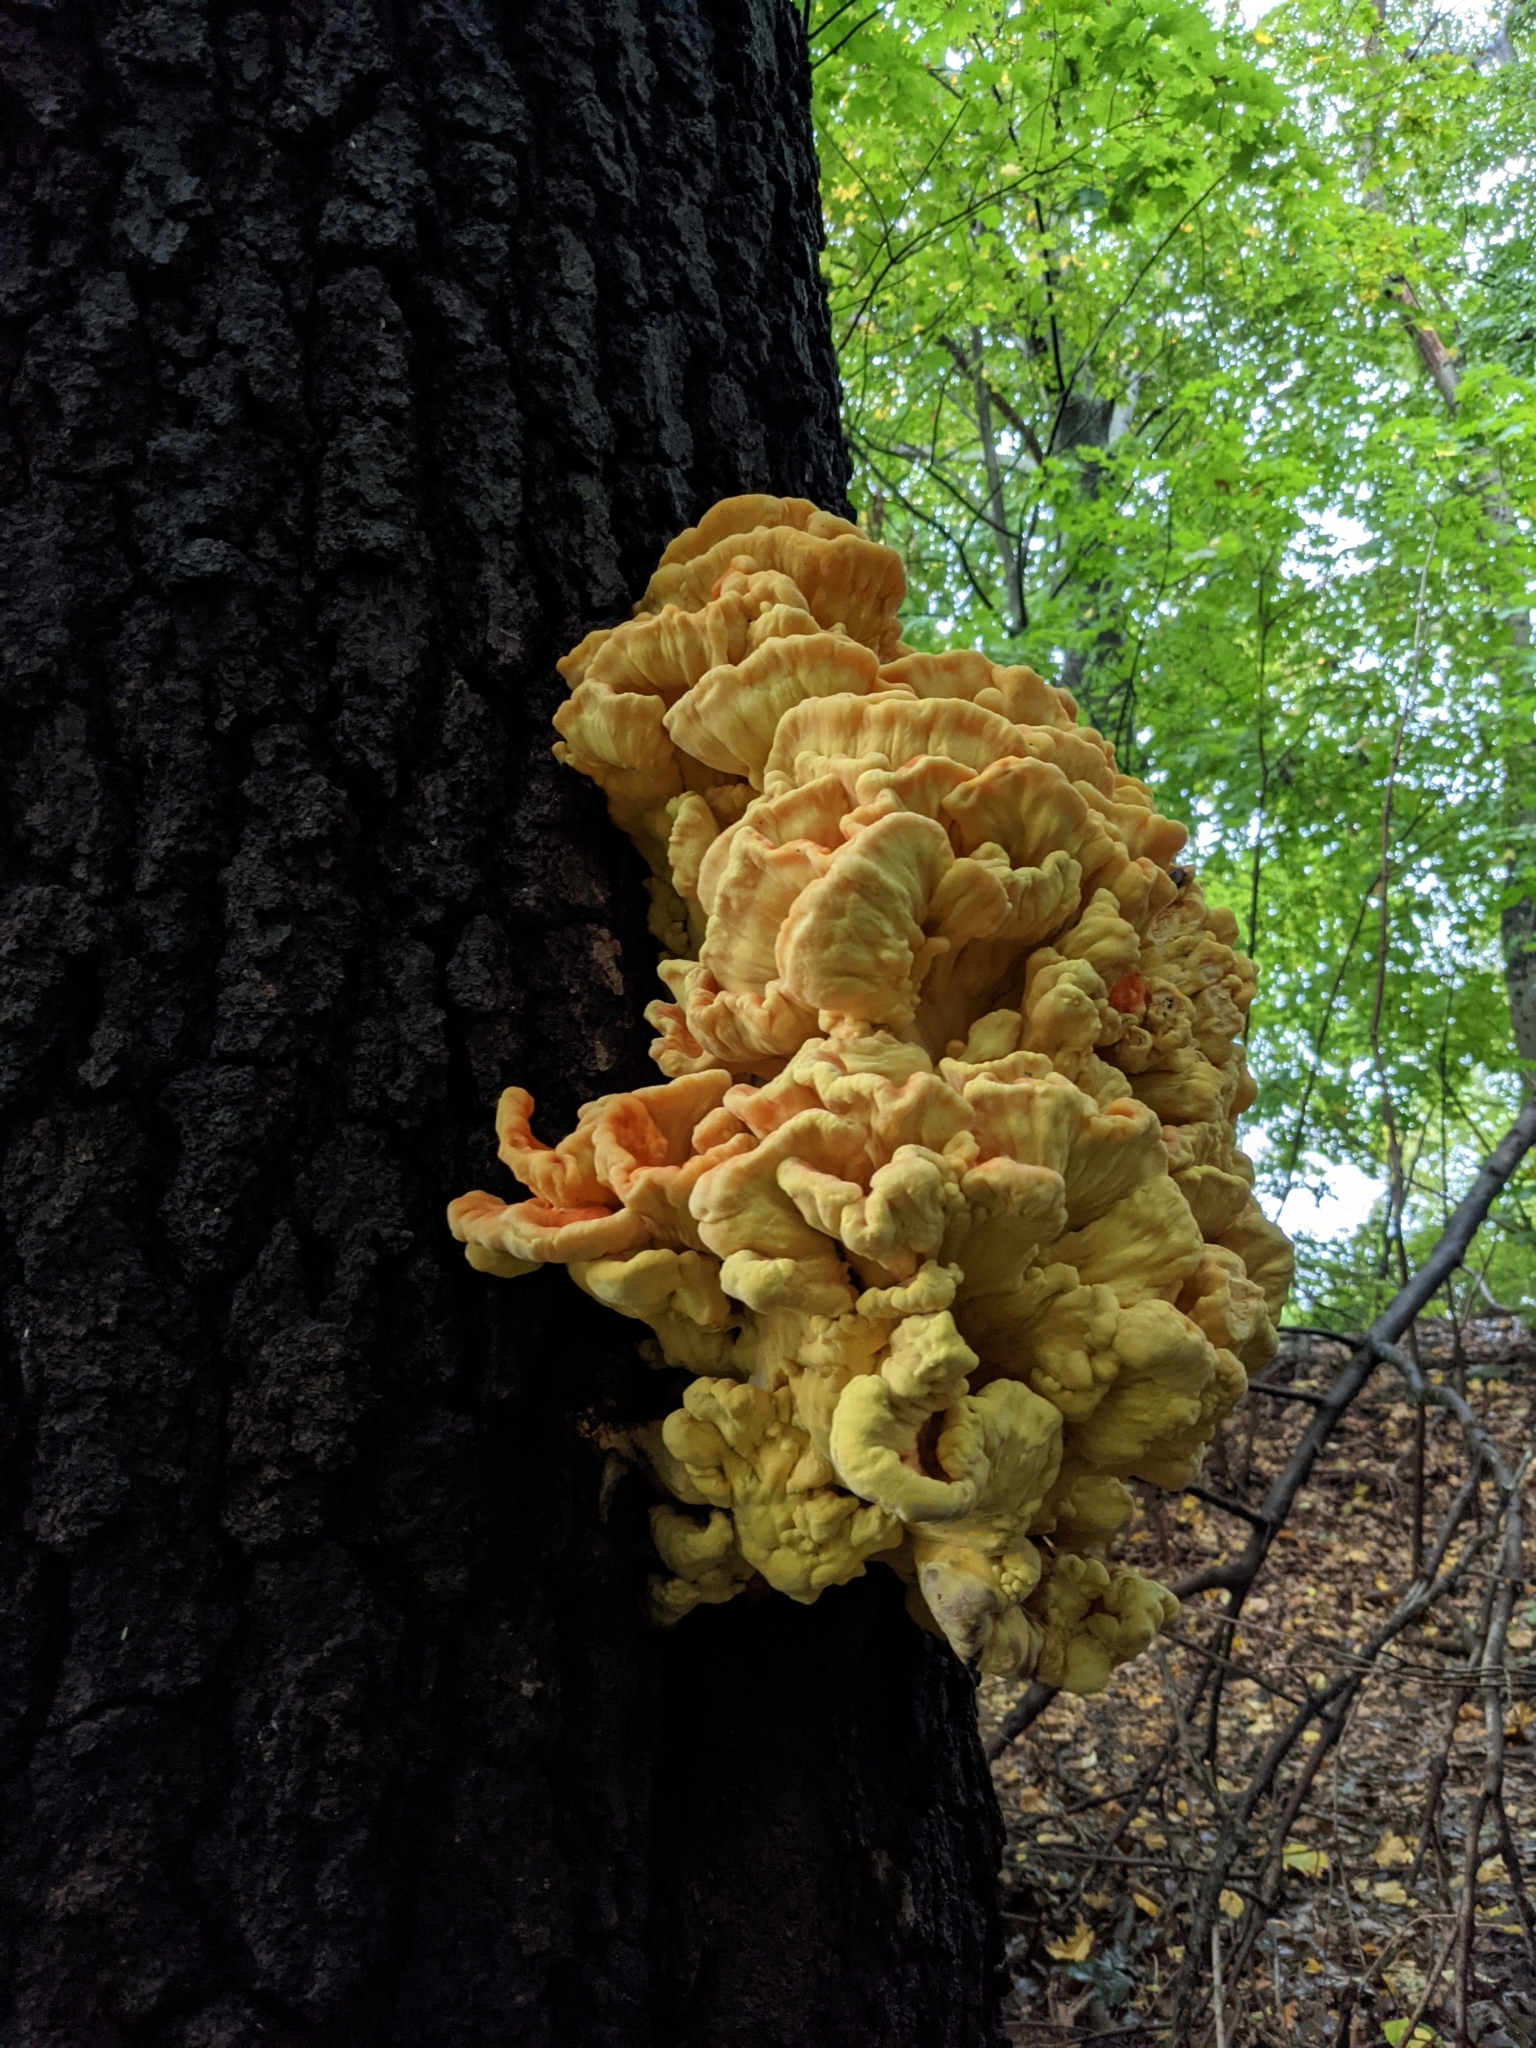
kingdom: Fungi
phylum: Basidiomycota
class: Agaricomycetes
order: Polyporales
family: Laetiporaceae
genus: Laetiporus
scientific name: Laetiporus sulphureus
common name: Chicken of the woods
